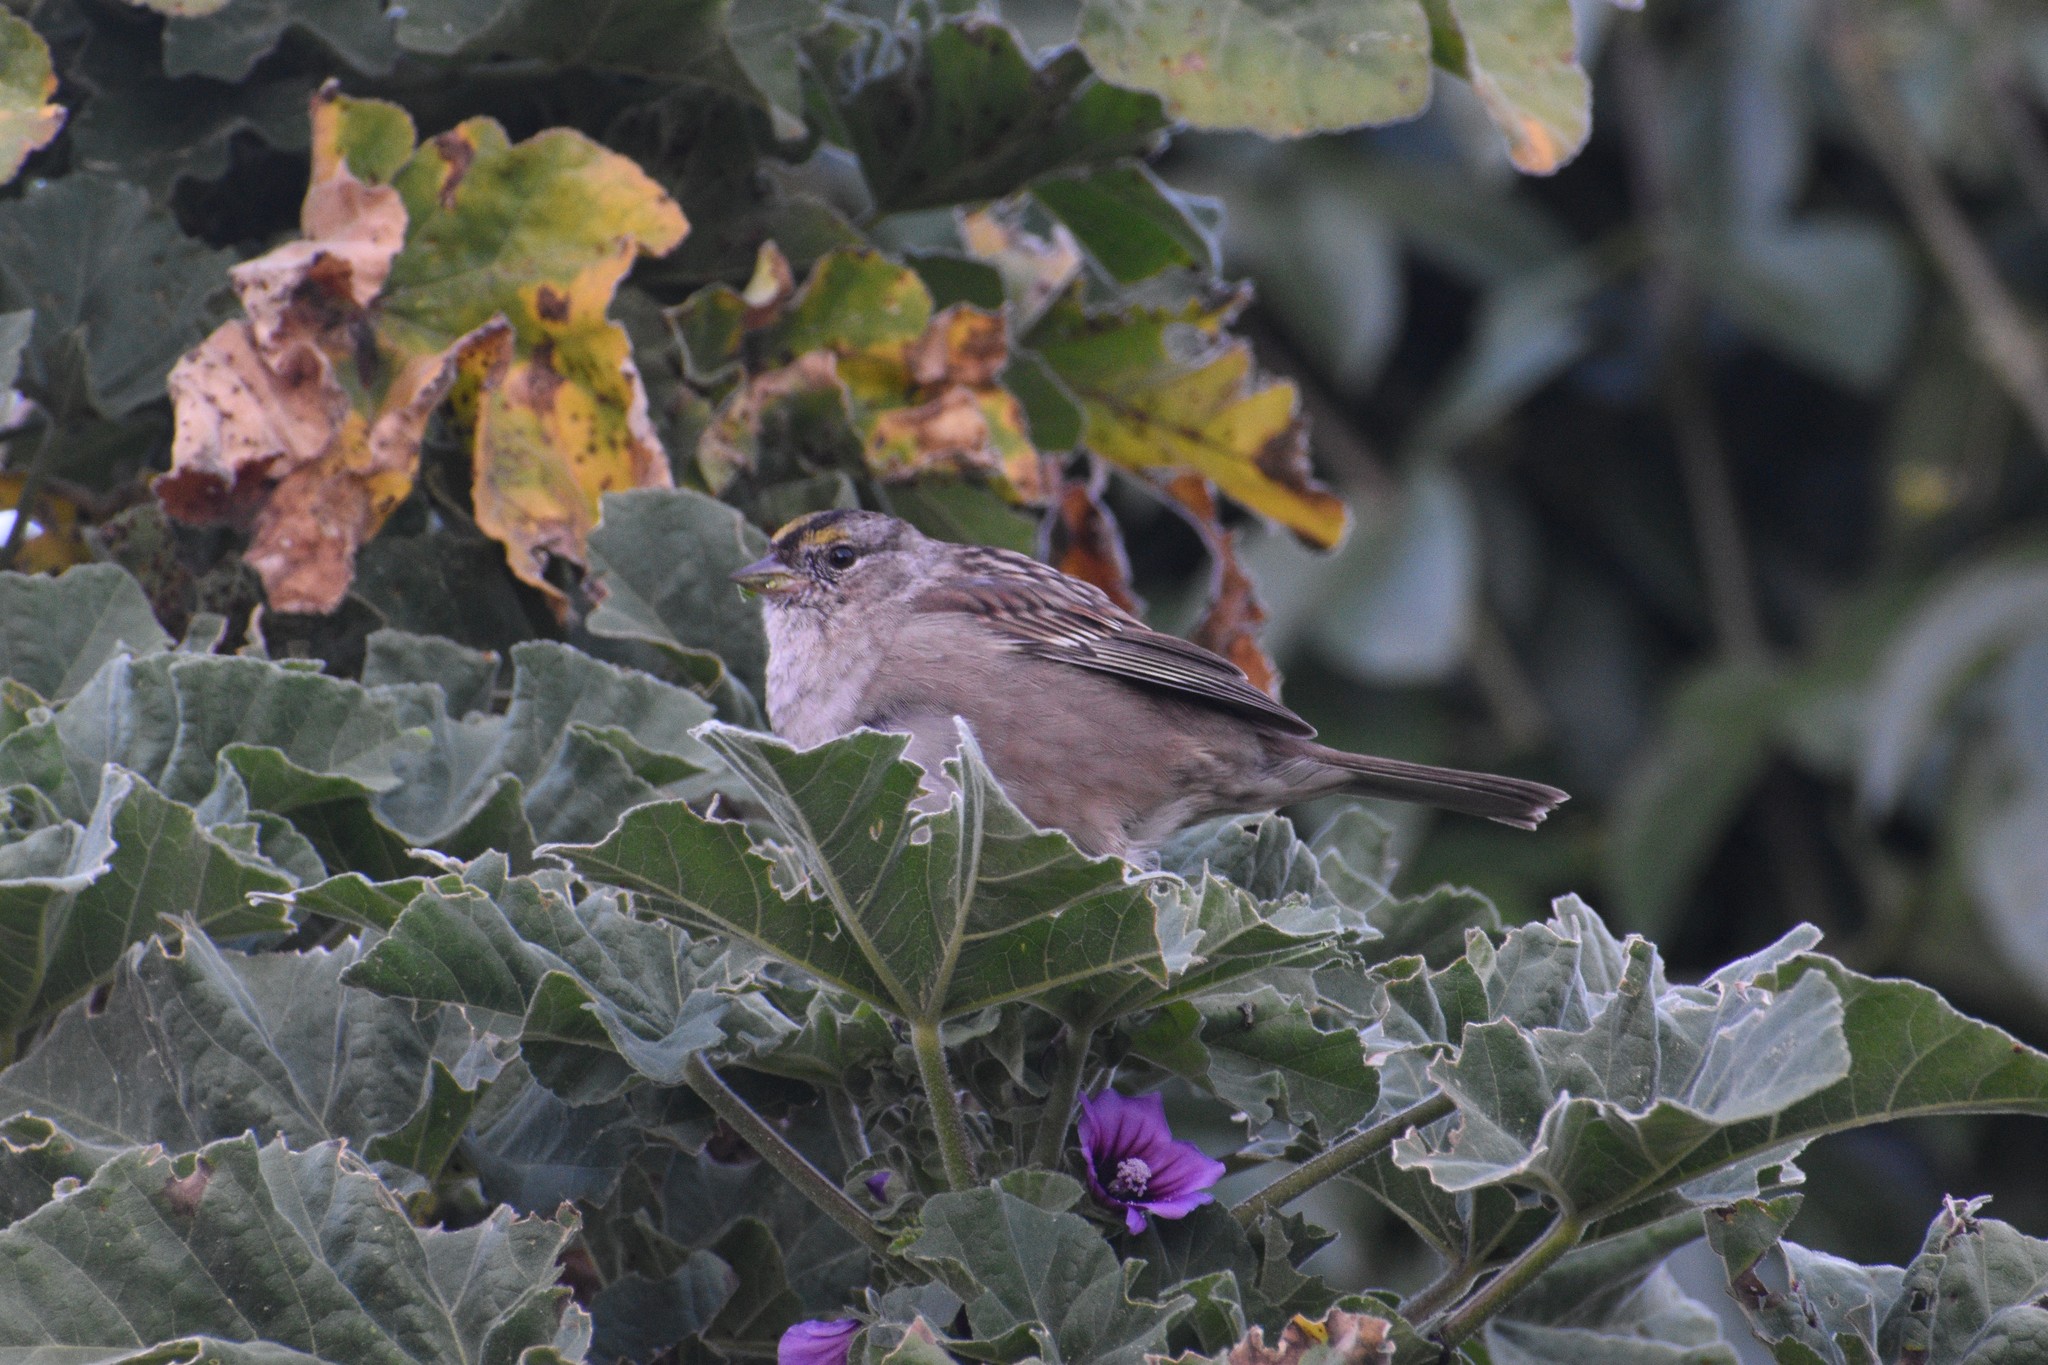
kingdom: Animalia
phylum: Chordata
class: Aves
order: Passeriformes
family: Passerellidae
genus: Zonotrichia
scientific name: Zonotrichia atricapilla
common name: Golden-crowned sparrow
